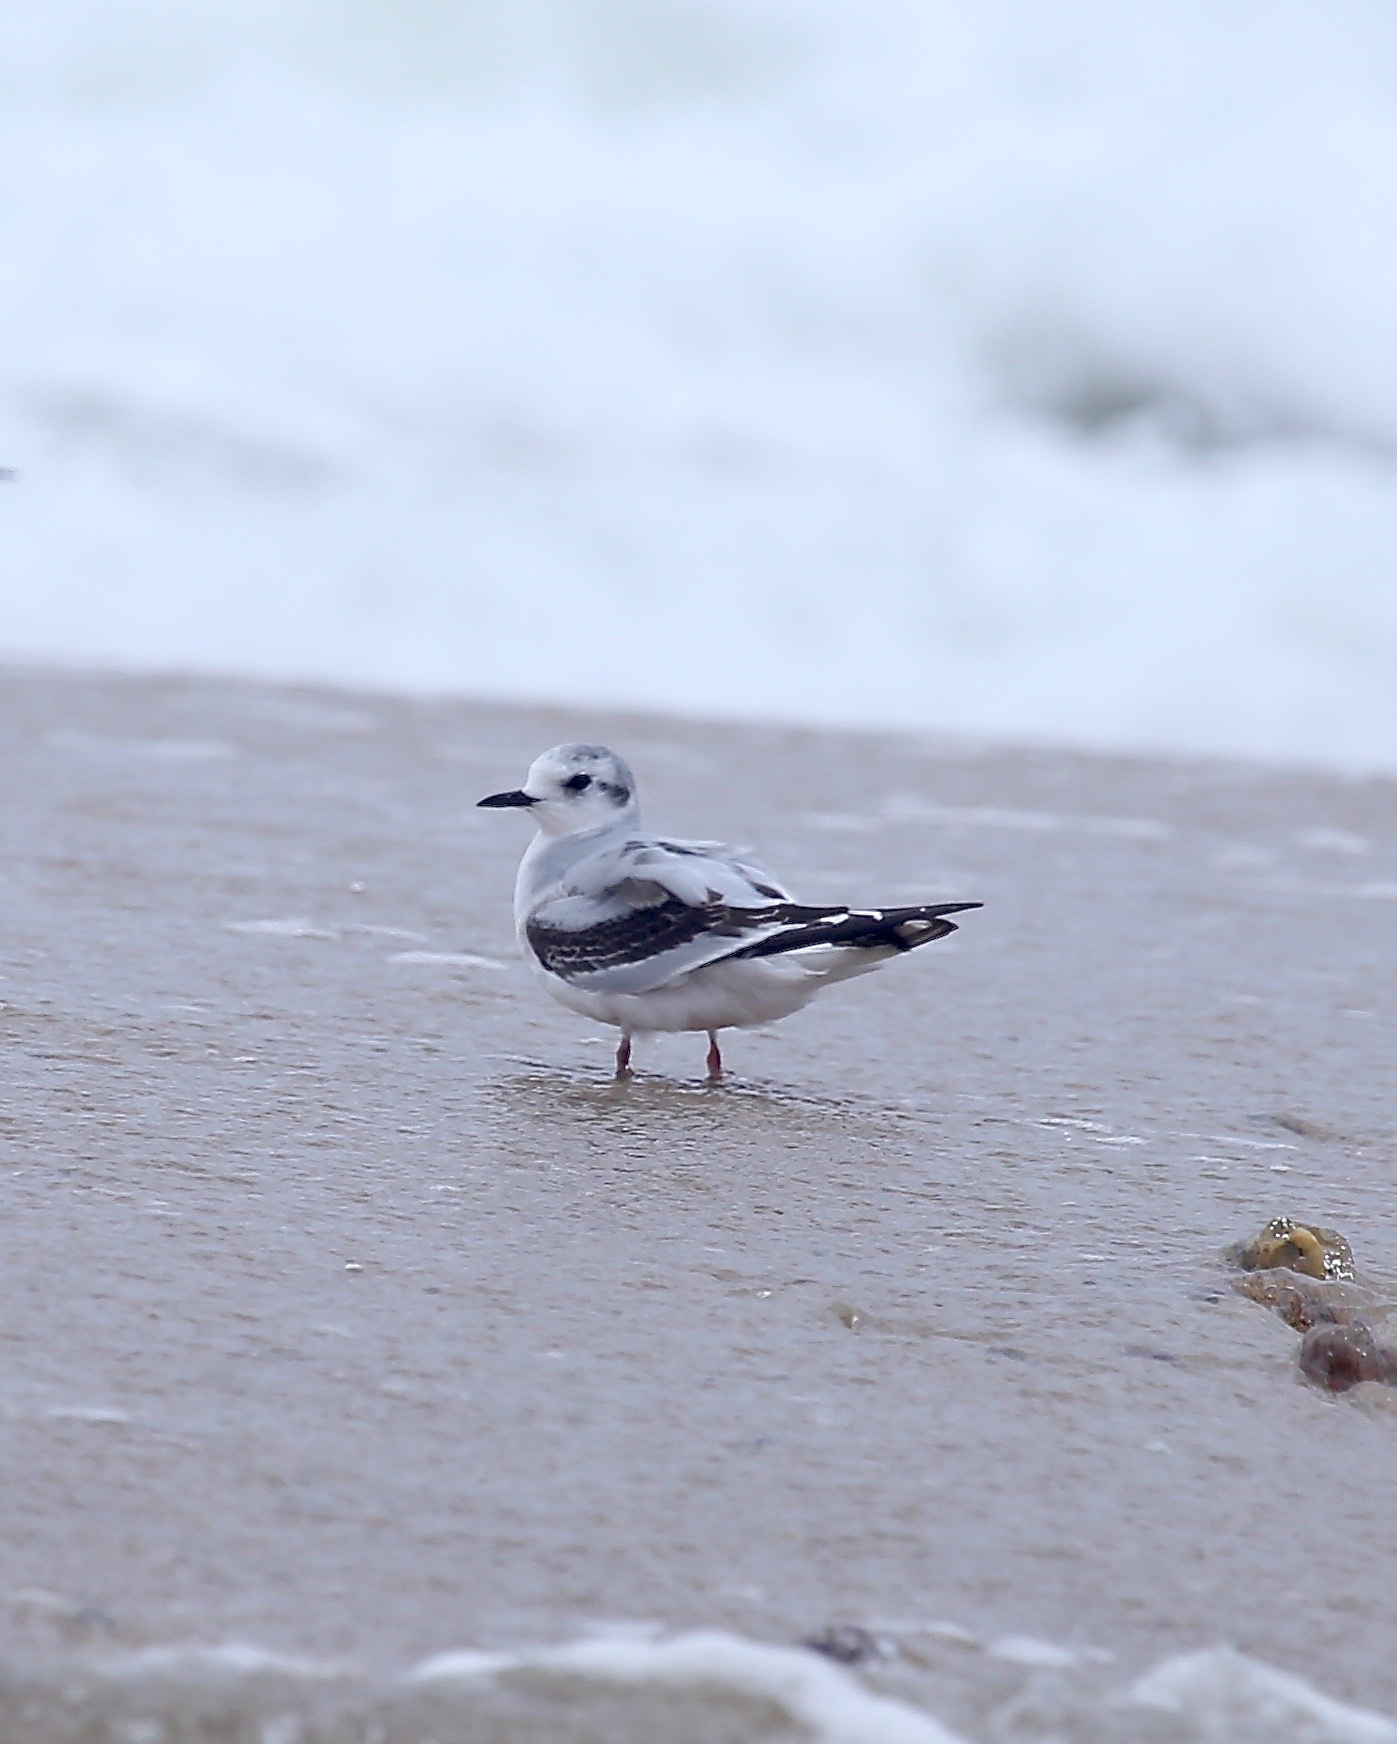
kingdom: Animalia
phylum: Chordata
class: Aves
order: Charadriiformes
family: Laridae
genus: Hydrocoloeus
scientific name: Hydrocoloeus minutus
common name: Little gull
